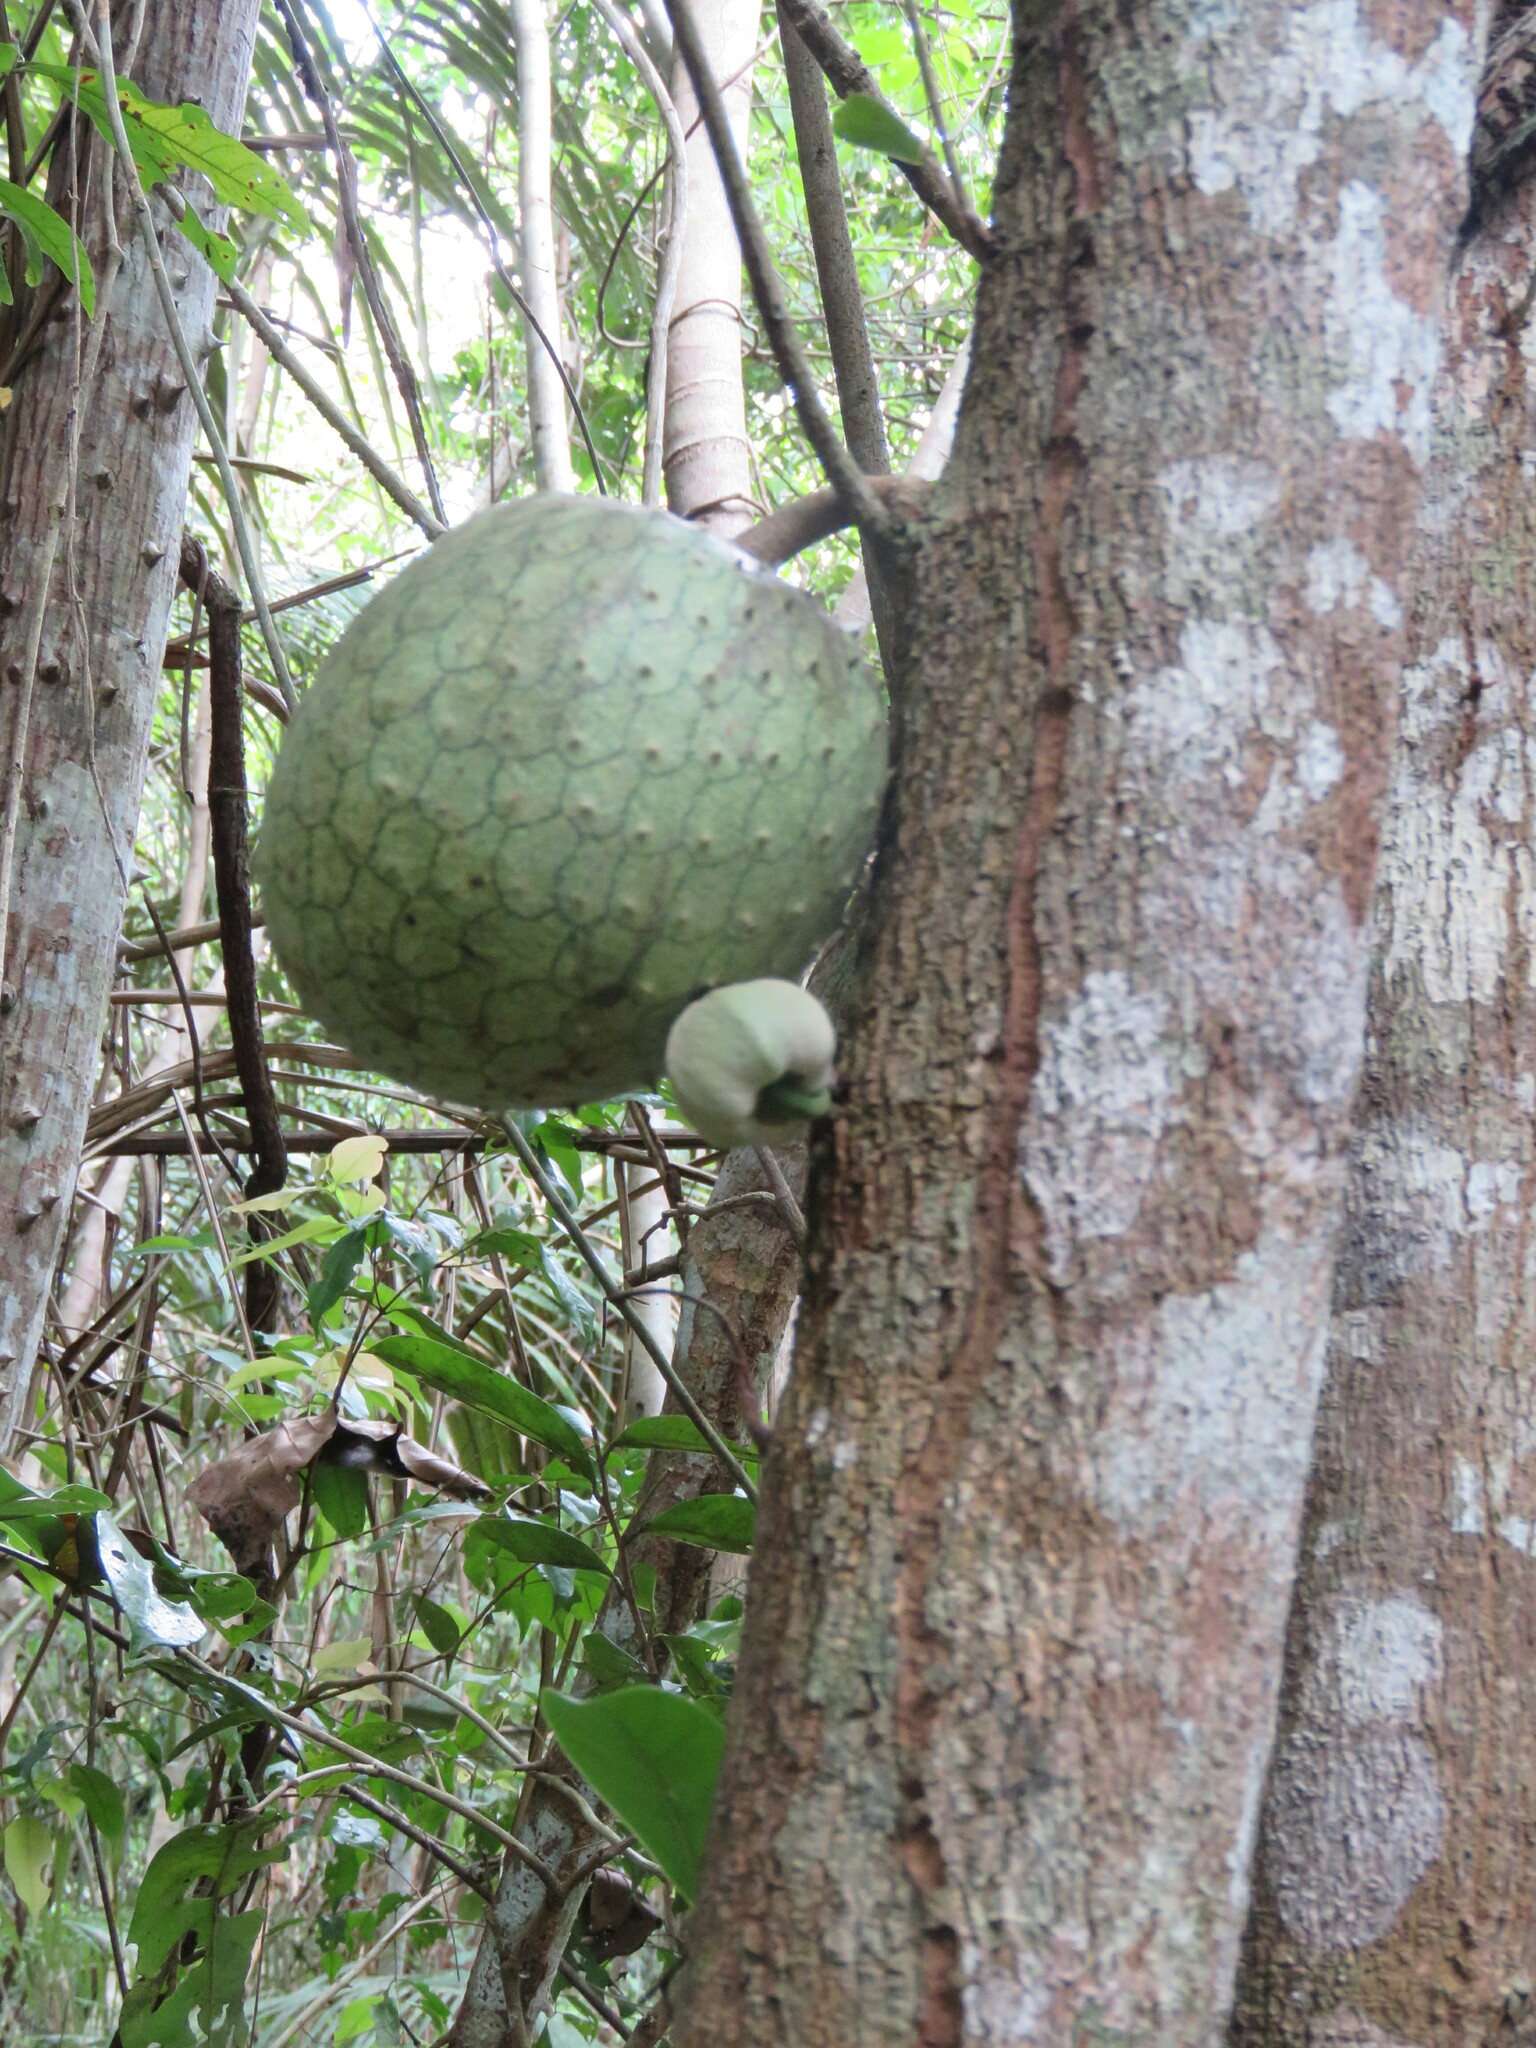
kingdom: Plantae
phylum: Tracheophyta
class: Magnoliopsida
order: Magnoliales
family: Annonaceae
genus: Annona
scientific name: Annona montana
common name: Mountain soursop
